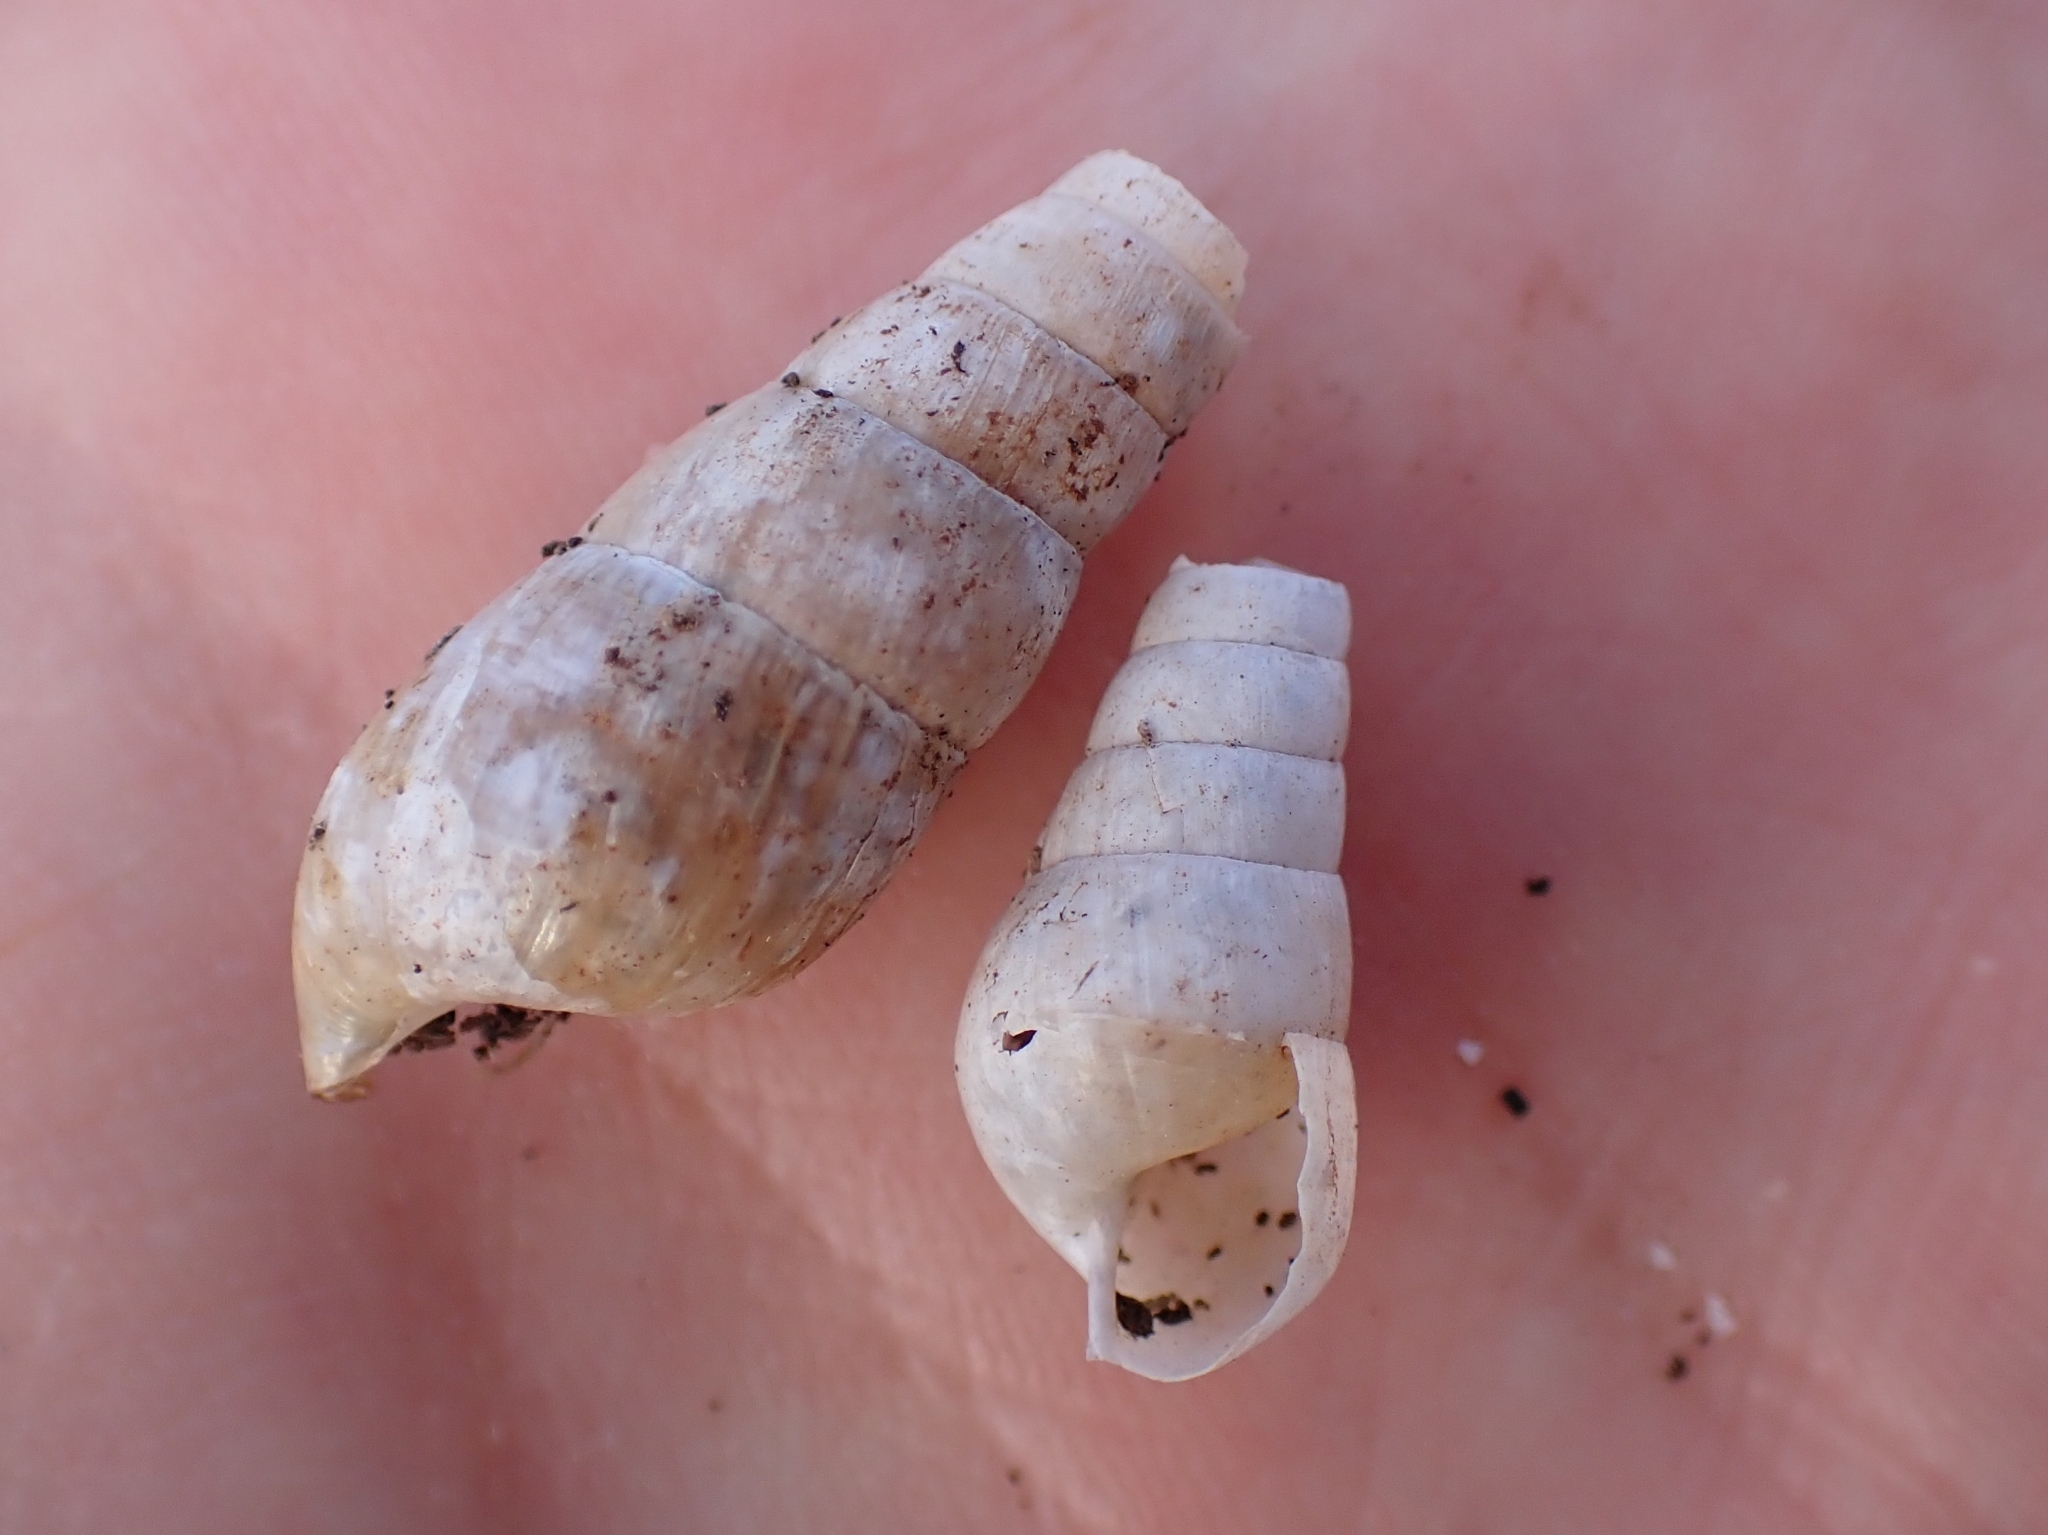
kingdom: Animalia
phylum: Mollusca
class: Gastropoda
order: Stylommatophora
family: Achatinidae
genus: Rumina
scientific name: Rumina decollata
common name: Decollate snail
